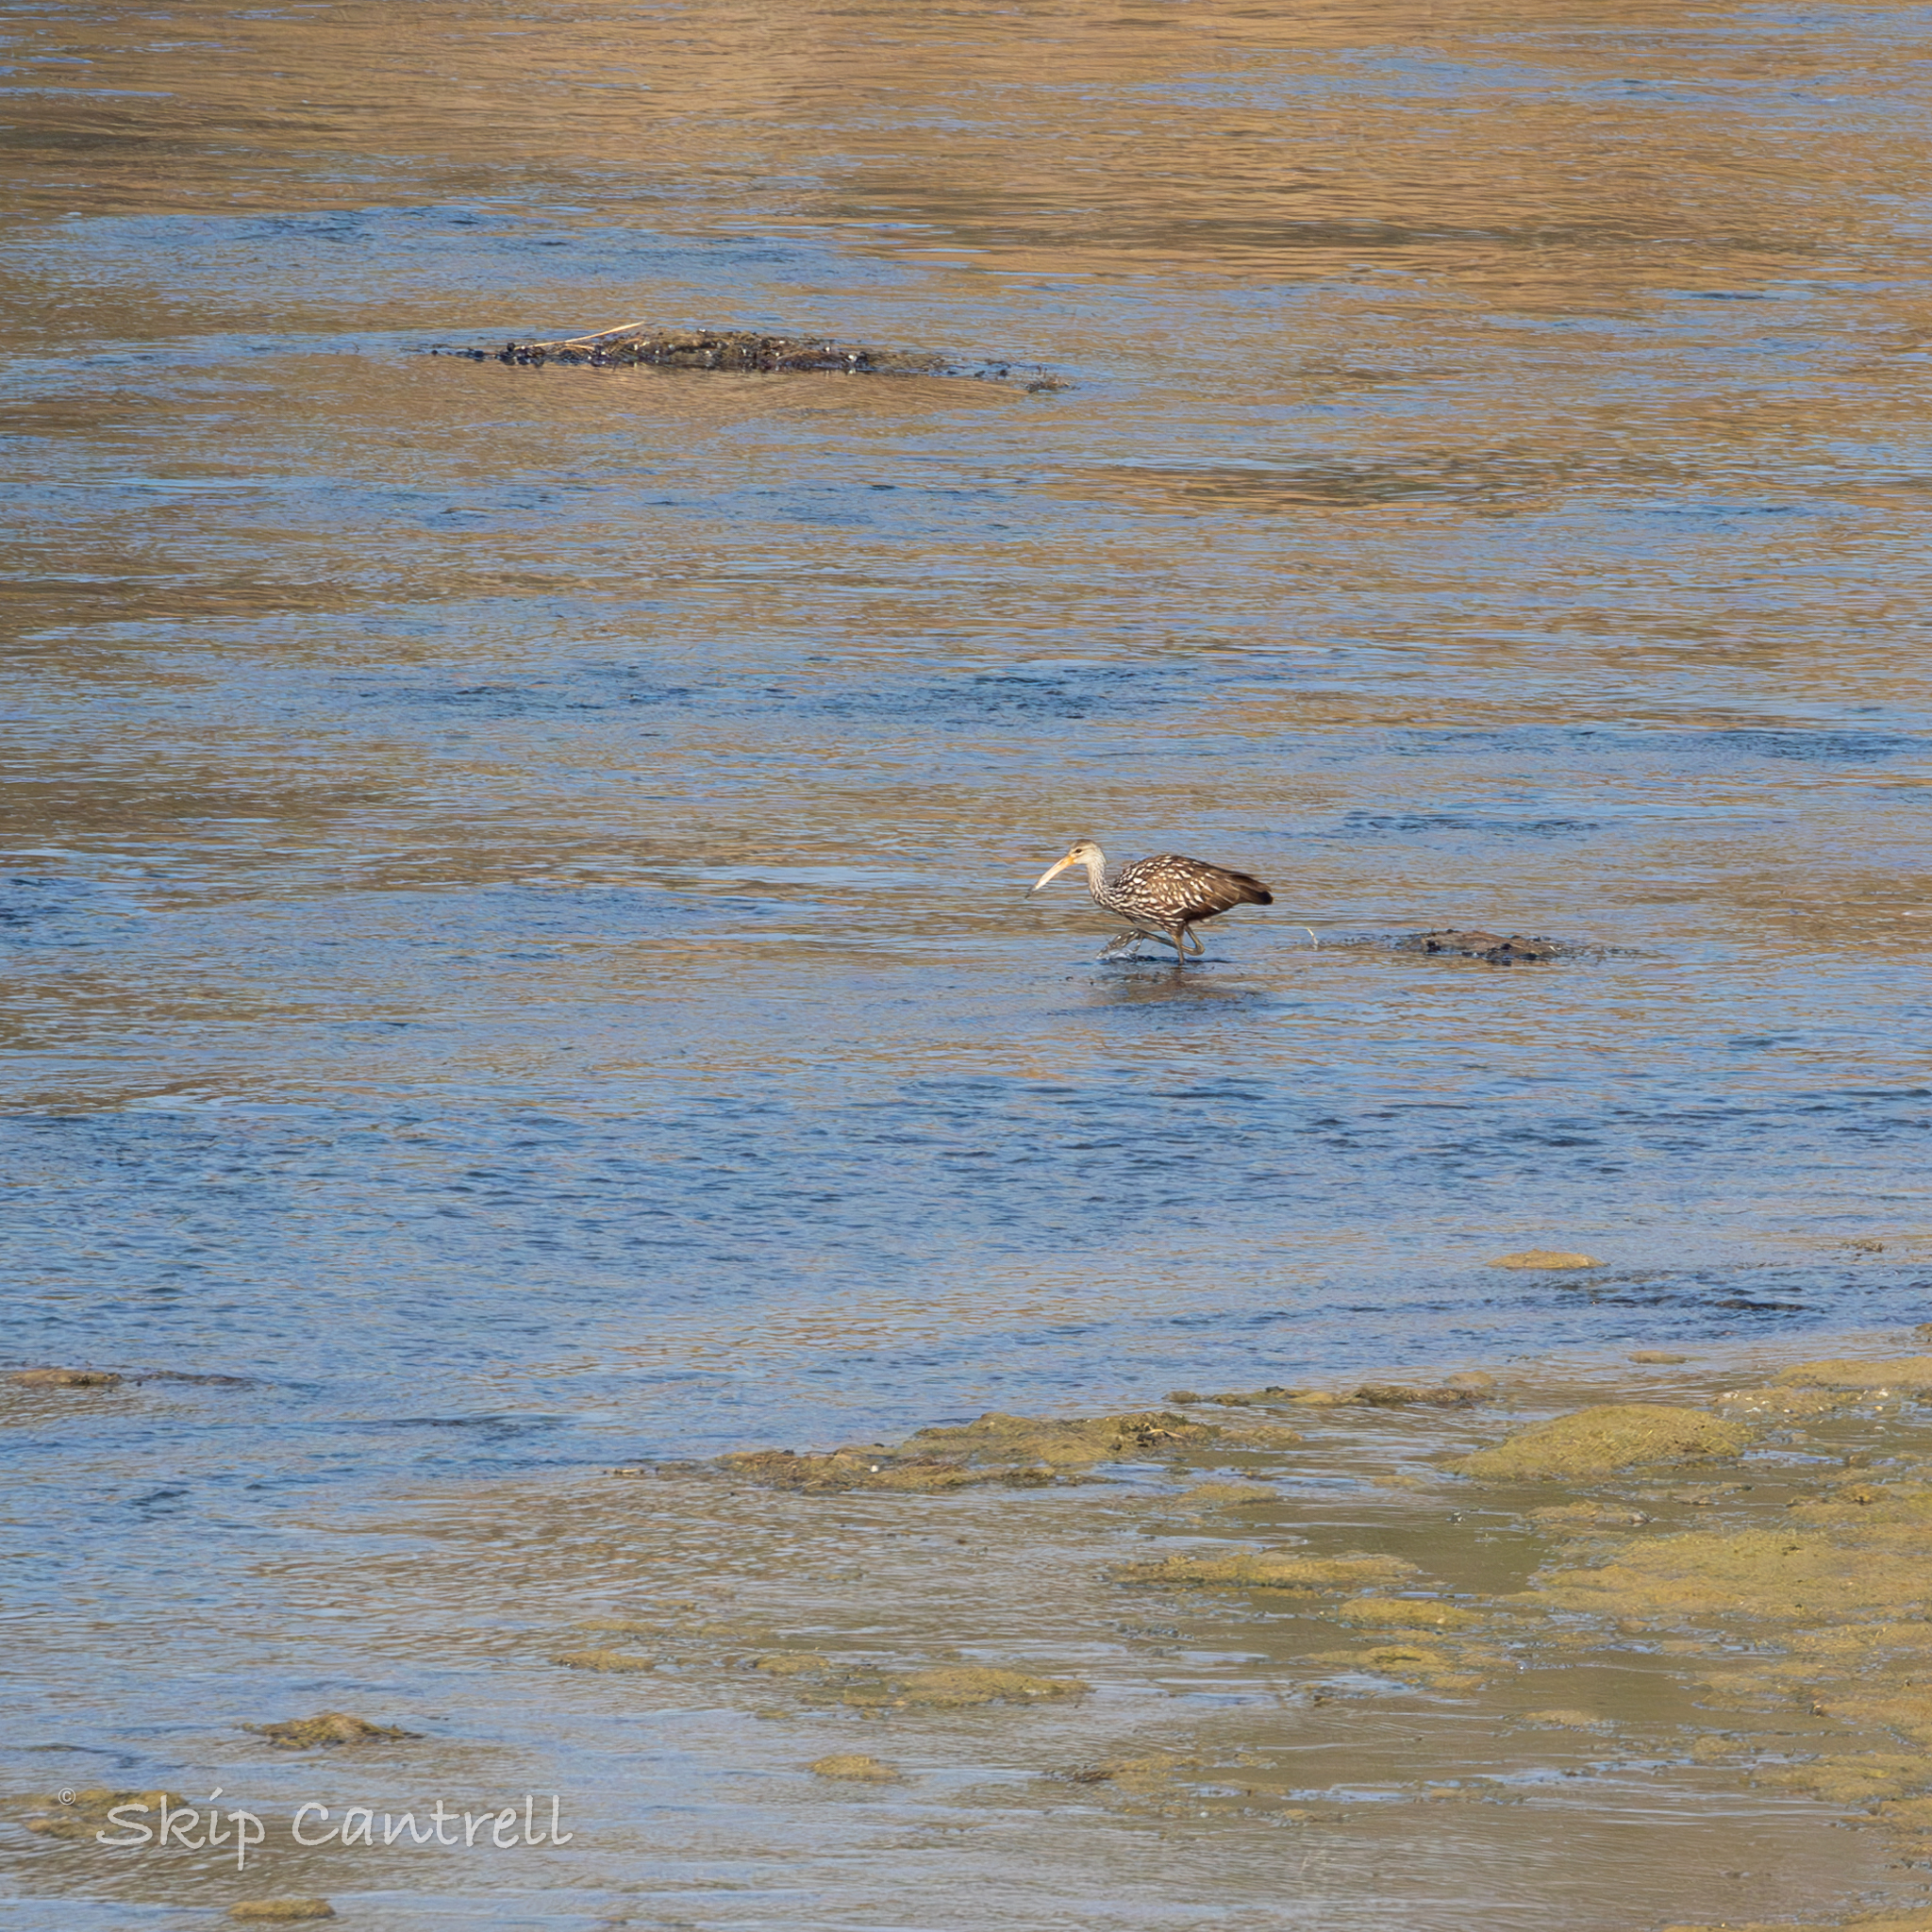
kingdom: Animalia
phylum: Chordata
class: Aves
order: Gruiformes
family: Aramidae
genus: Aramus
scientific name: Aramus guarauna
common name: Limpkin
